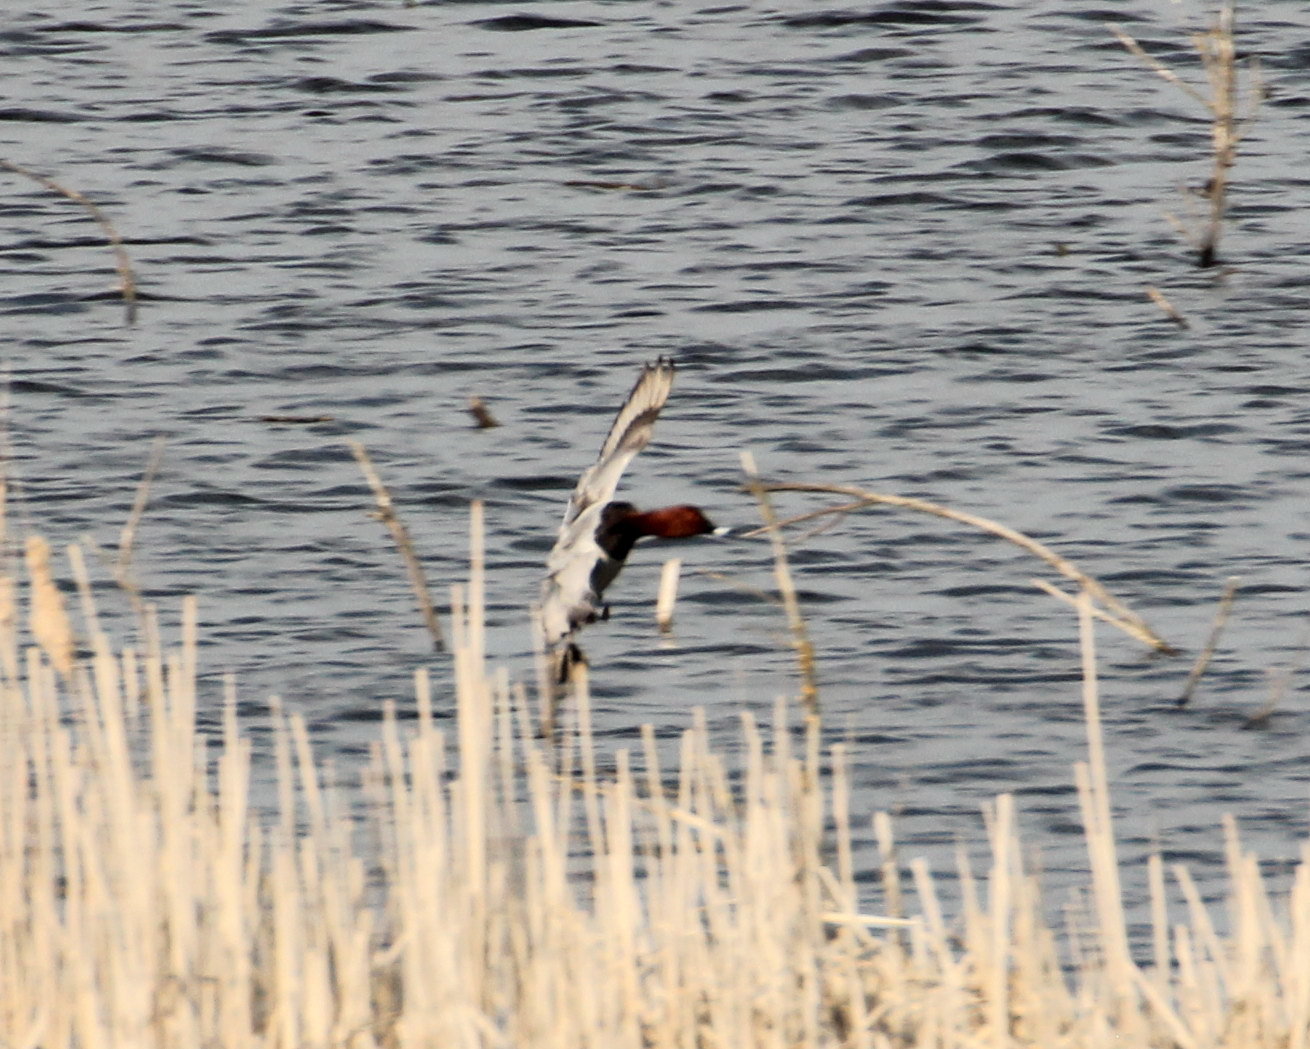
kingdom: Animalia
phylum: Chordata
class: Aves
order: Anseriformes
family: Anatidae
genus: Aythya
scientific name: Aythya ferina
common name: Common pochard
